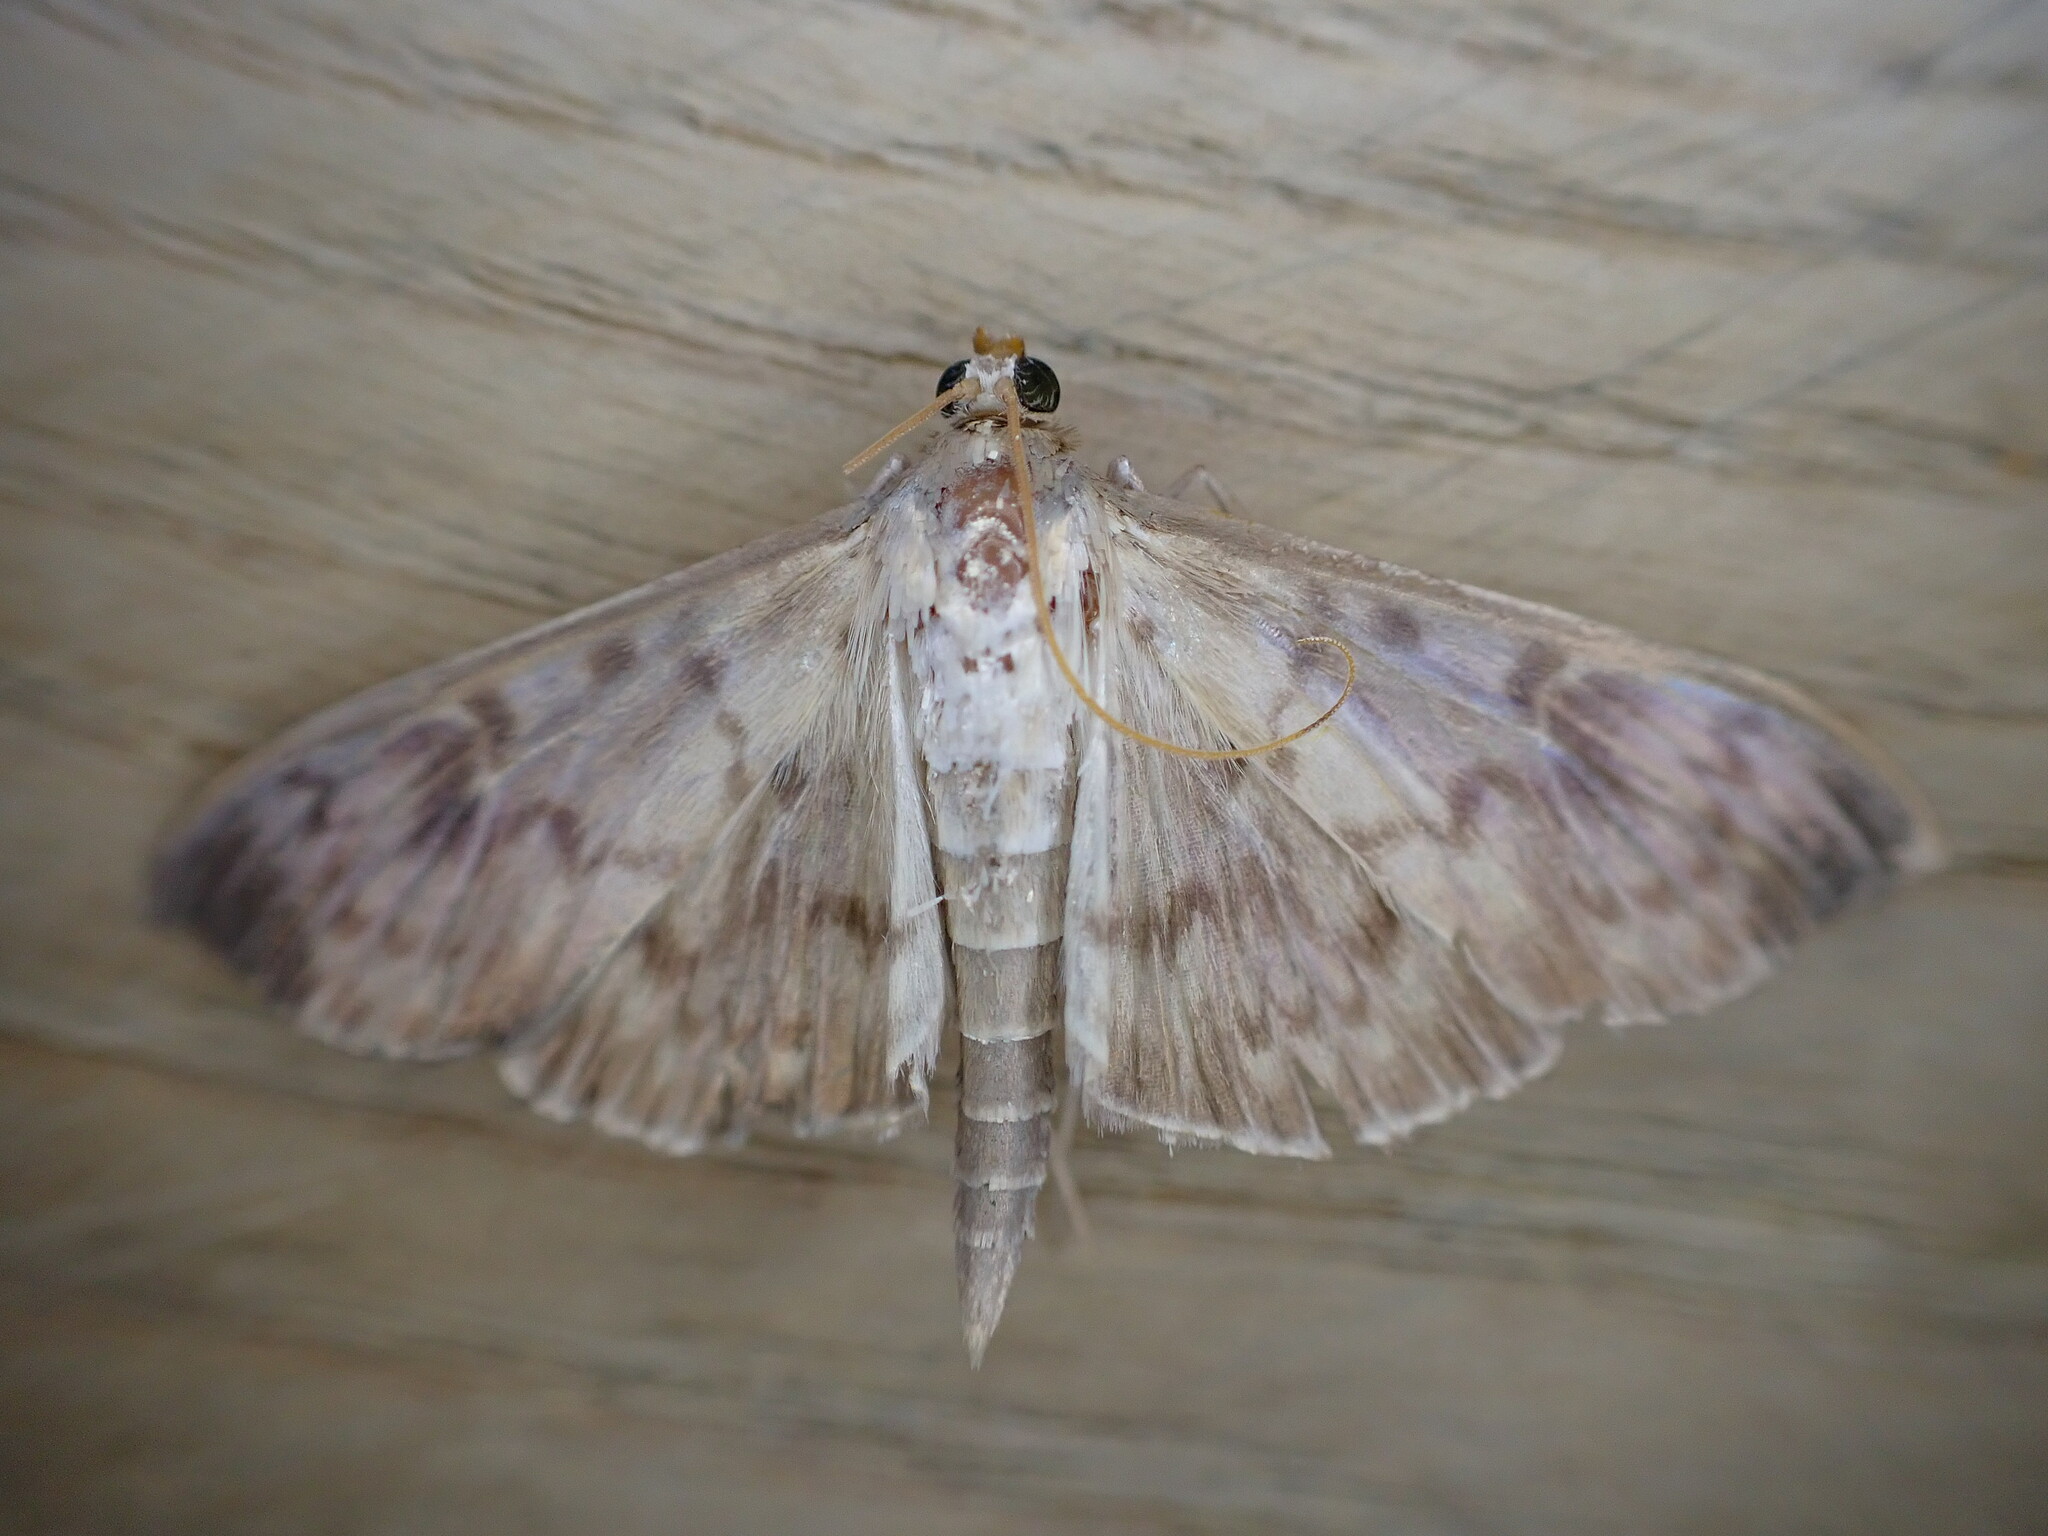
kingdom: Animalia
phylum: Arthropoda
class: Insecta
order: Lepidoptera
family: Crambidae
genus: Patania
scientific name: Patania ruralis
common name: Mother of pearl
